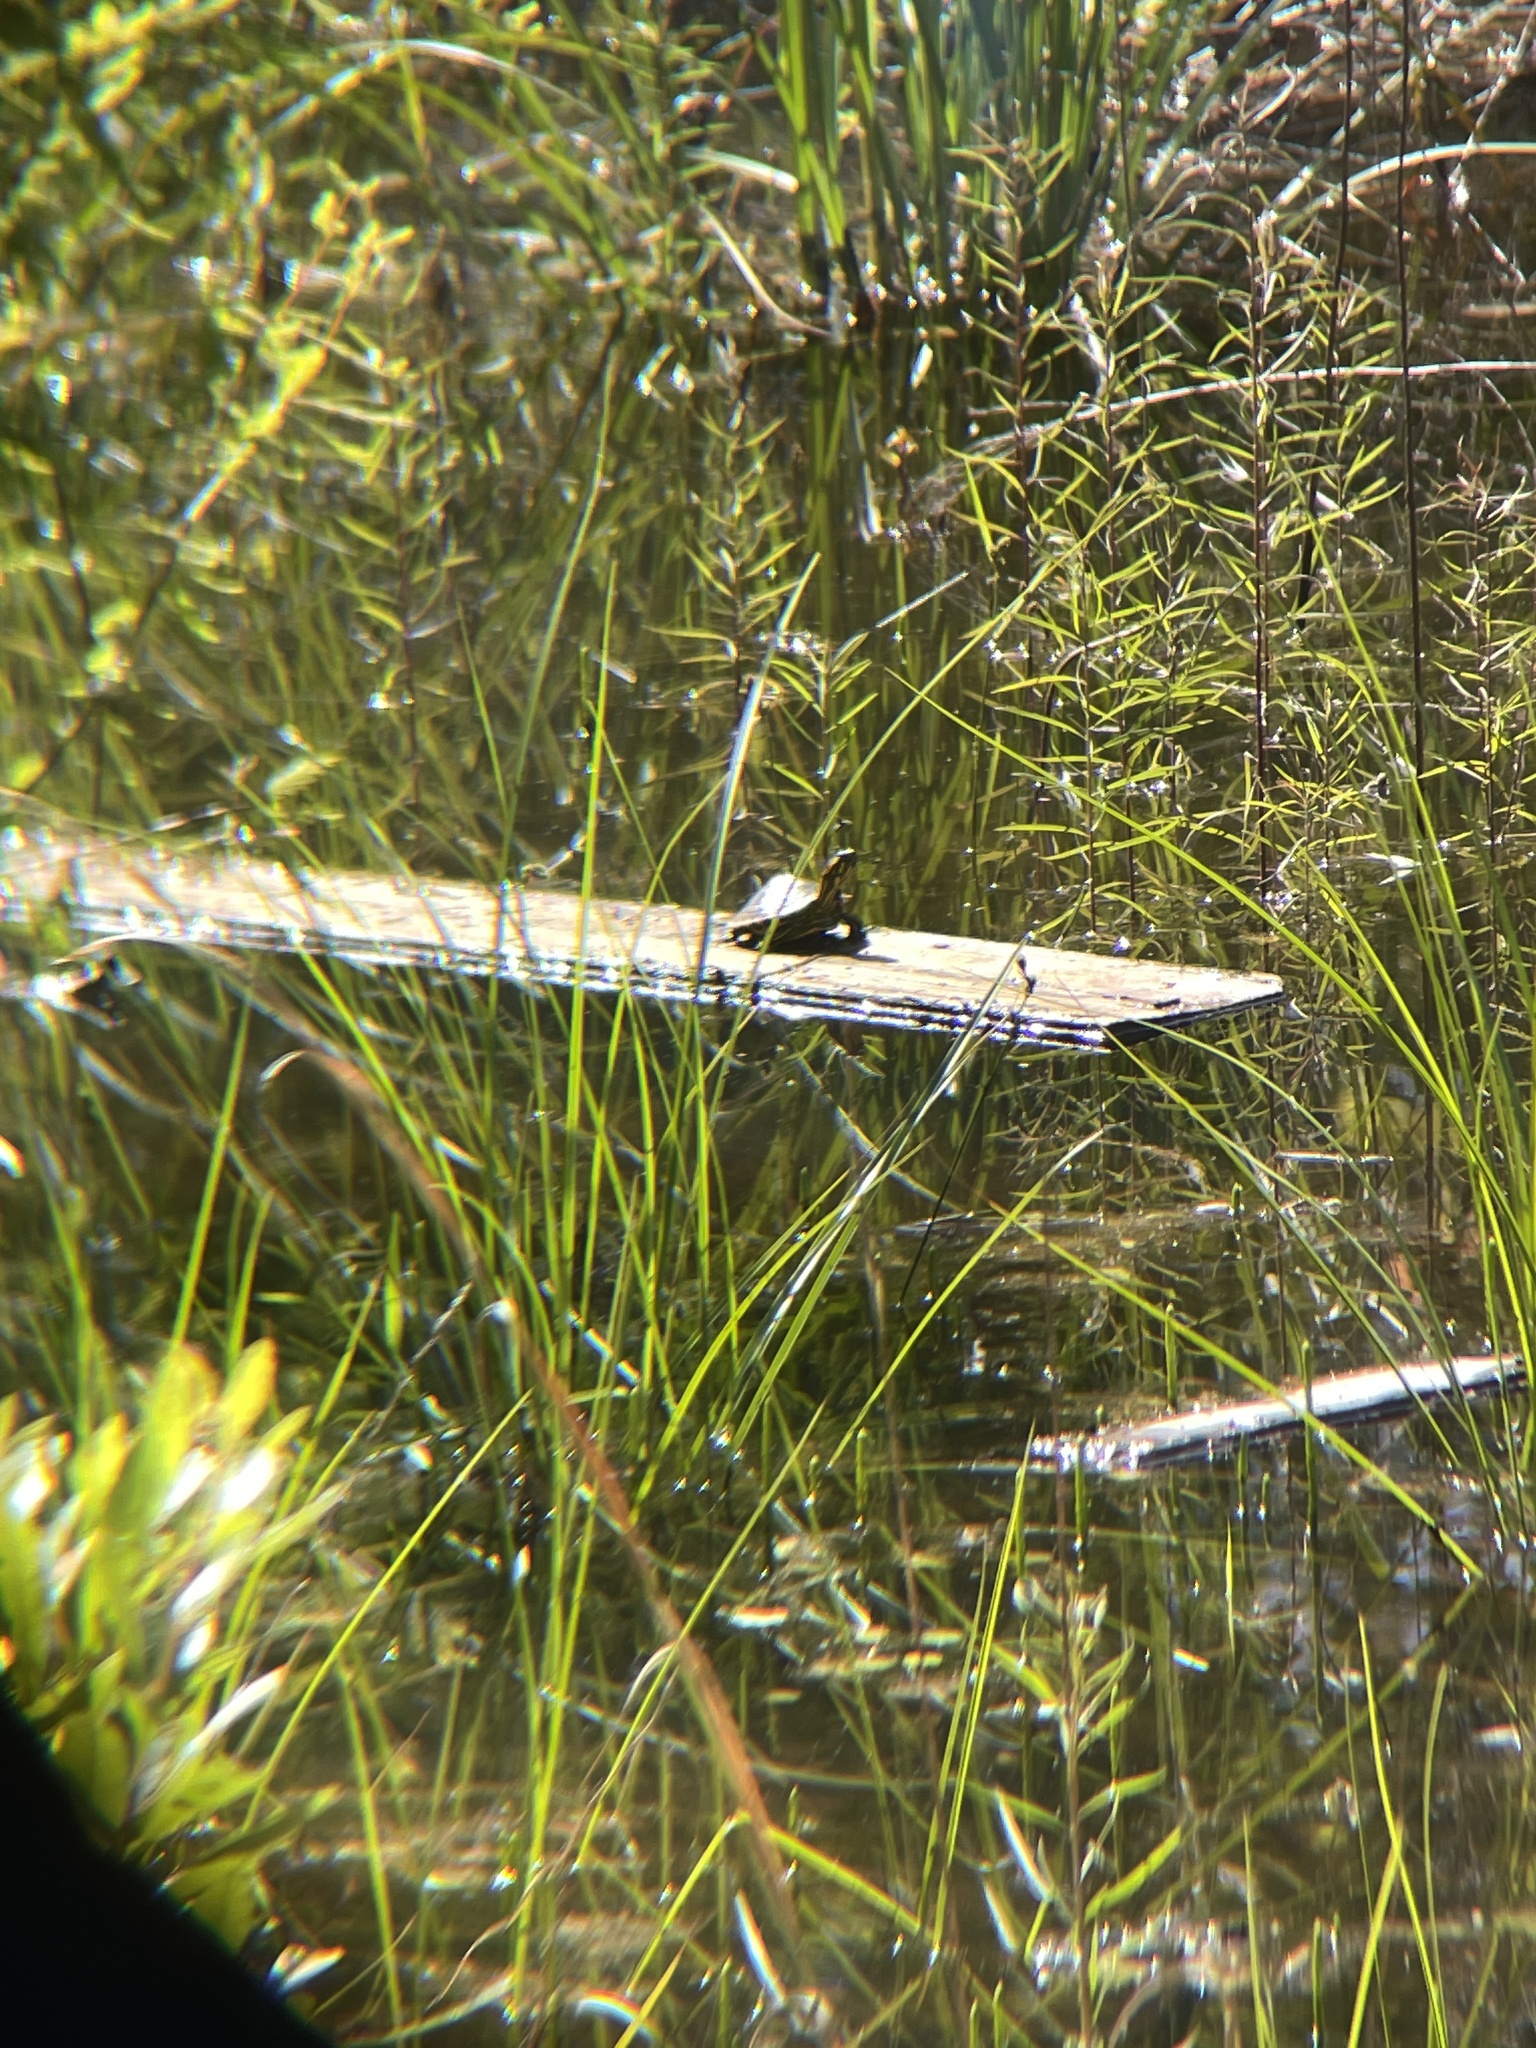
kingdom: Animalia
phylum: Chordata
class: Testudines
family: Emydidae
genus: Trachemys
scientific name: Trachemys scripta
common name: Slider
